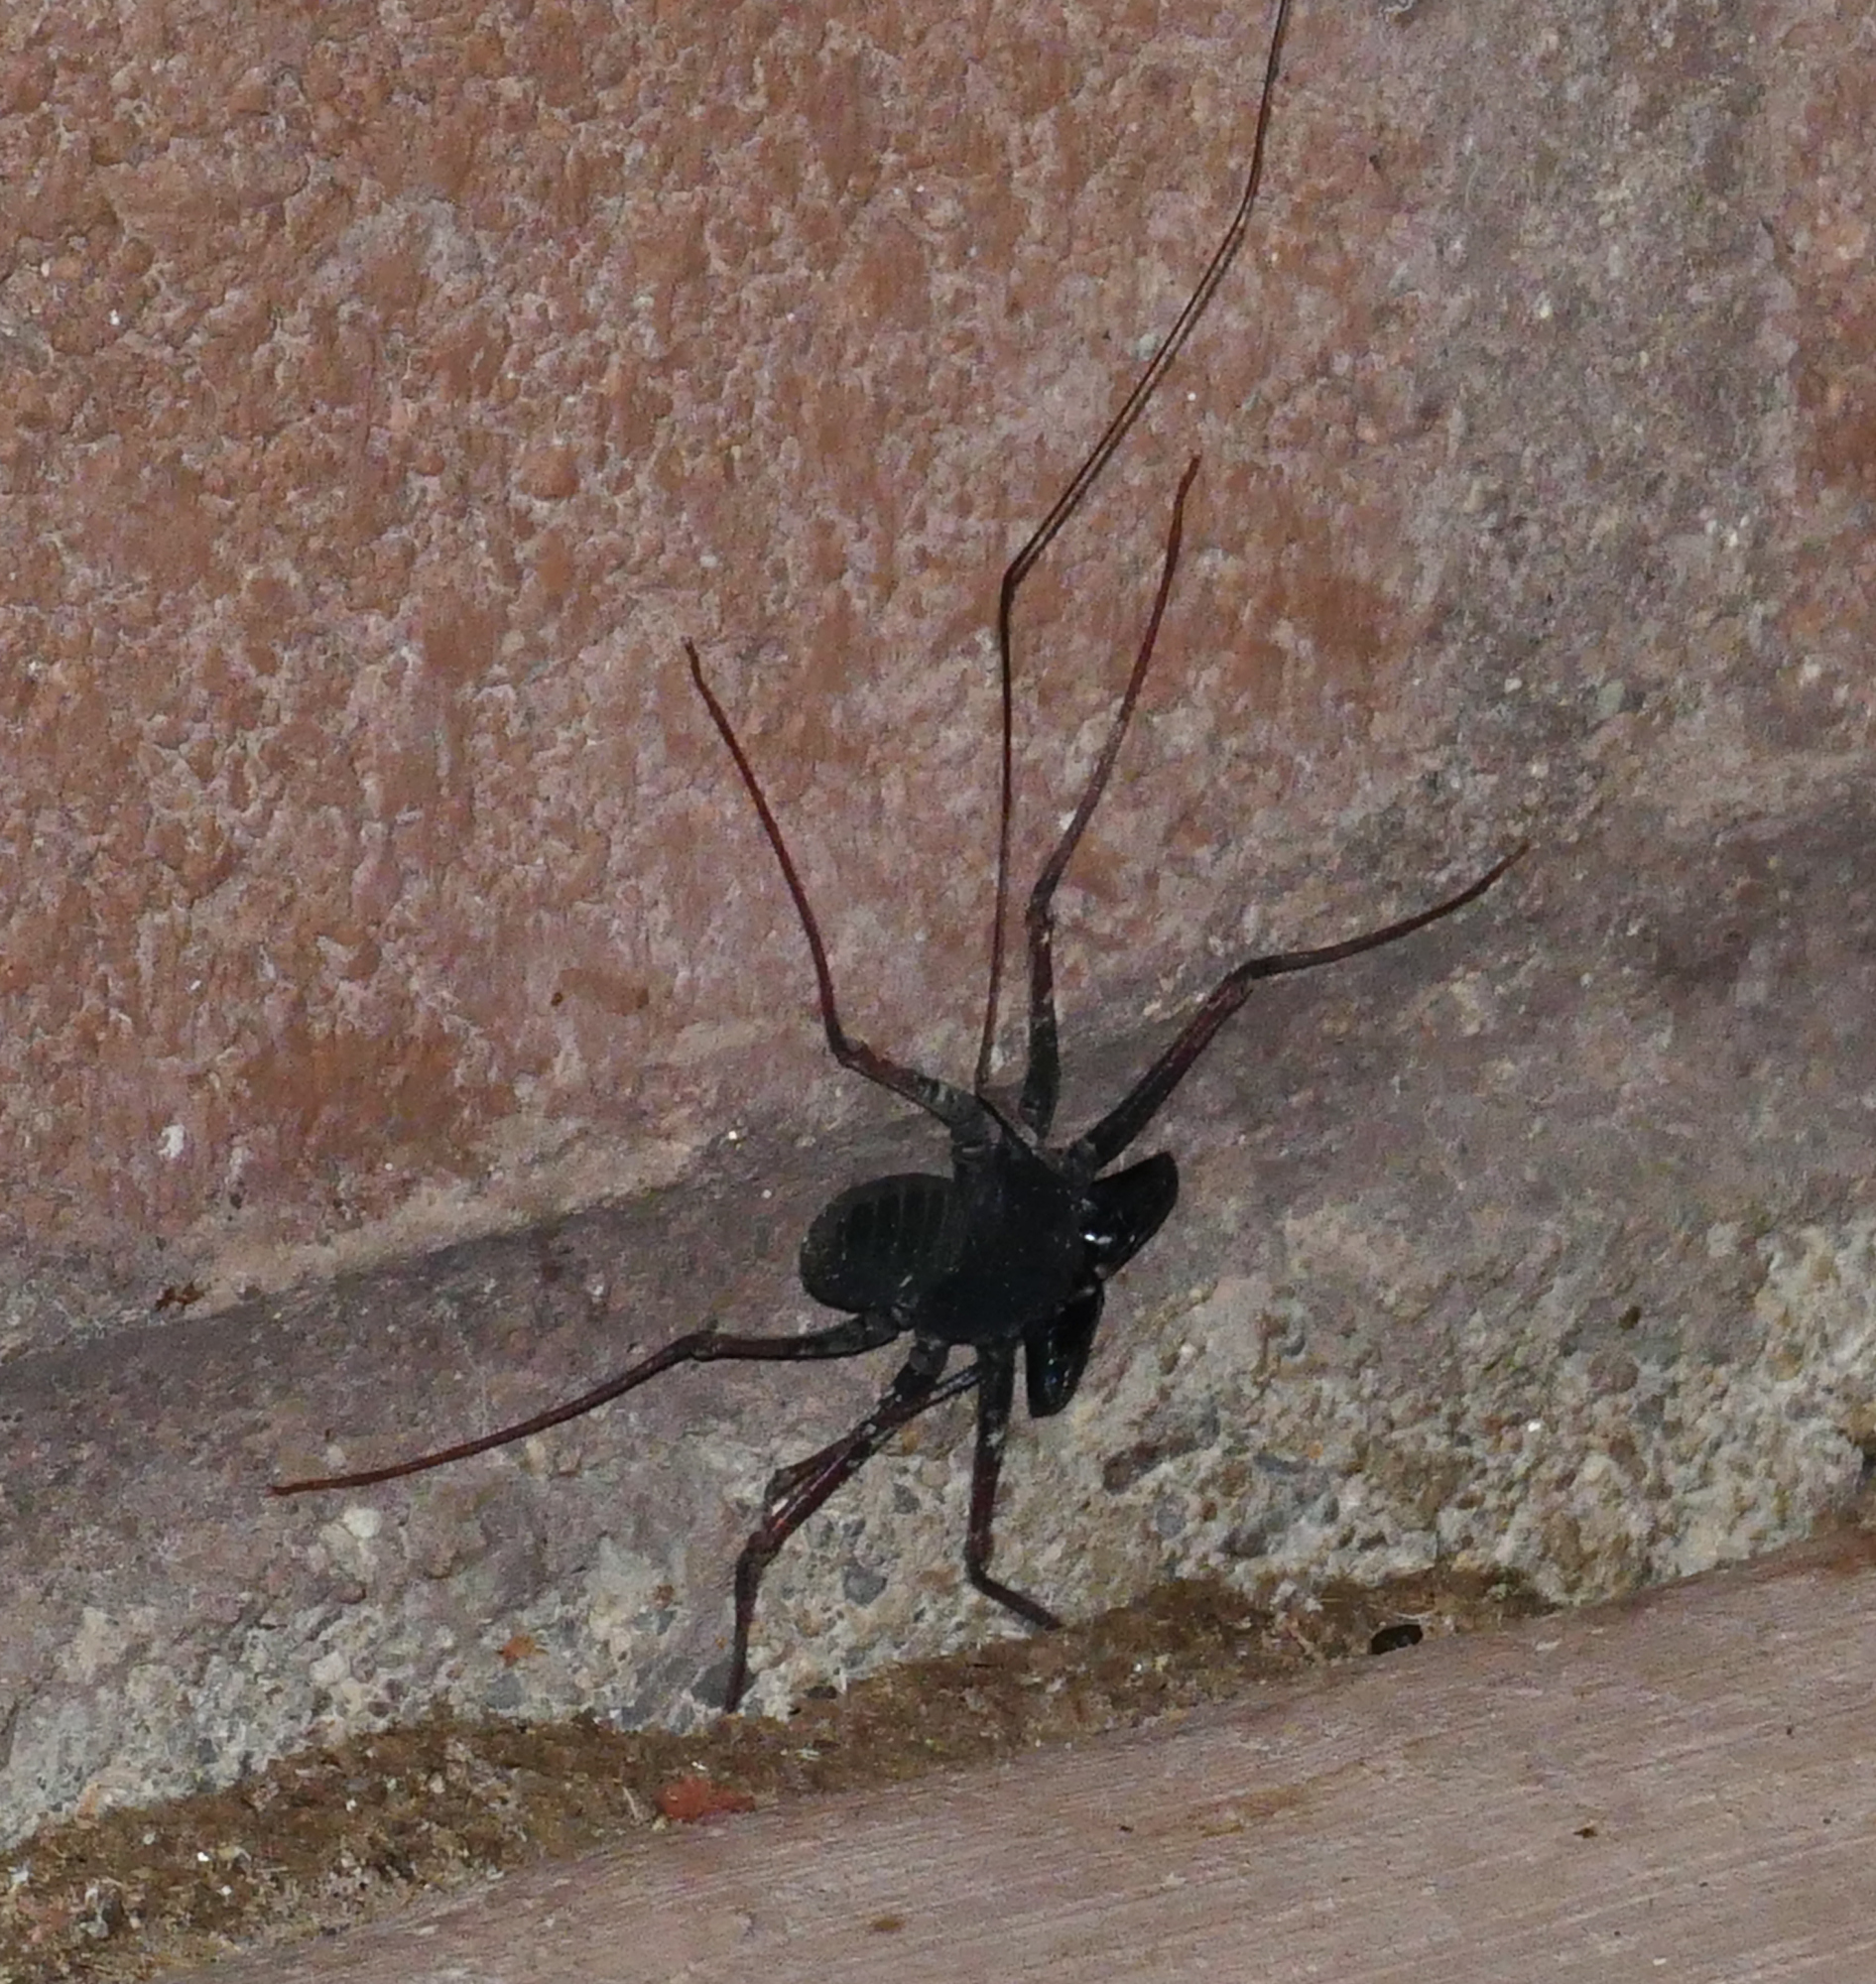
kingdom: Animalia
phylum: Arthropoda
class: Arachnida
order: Amblypygi
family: Phrynidae
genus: Paraphrynus
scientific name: Paraphrynus carolynae
